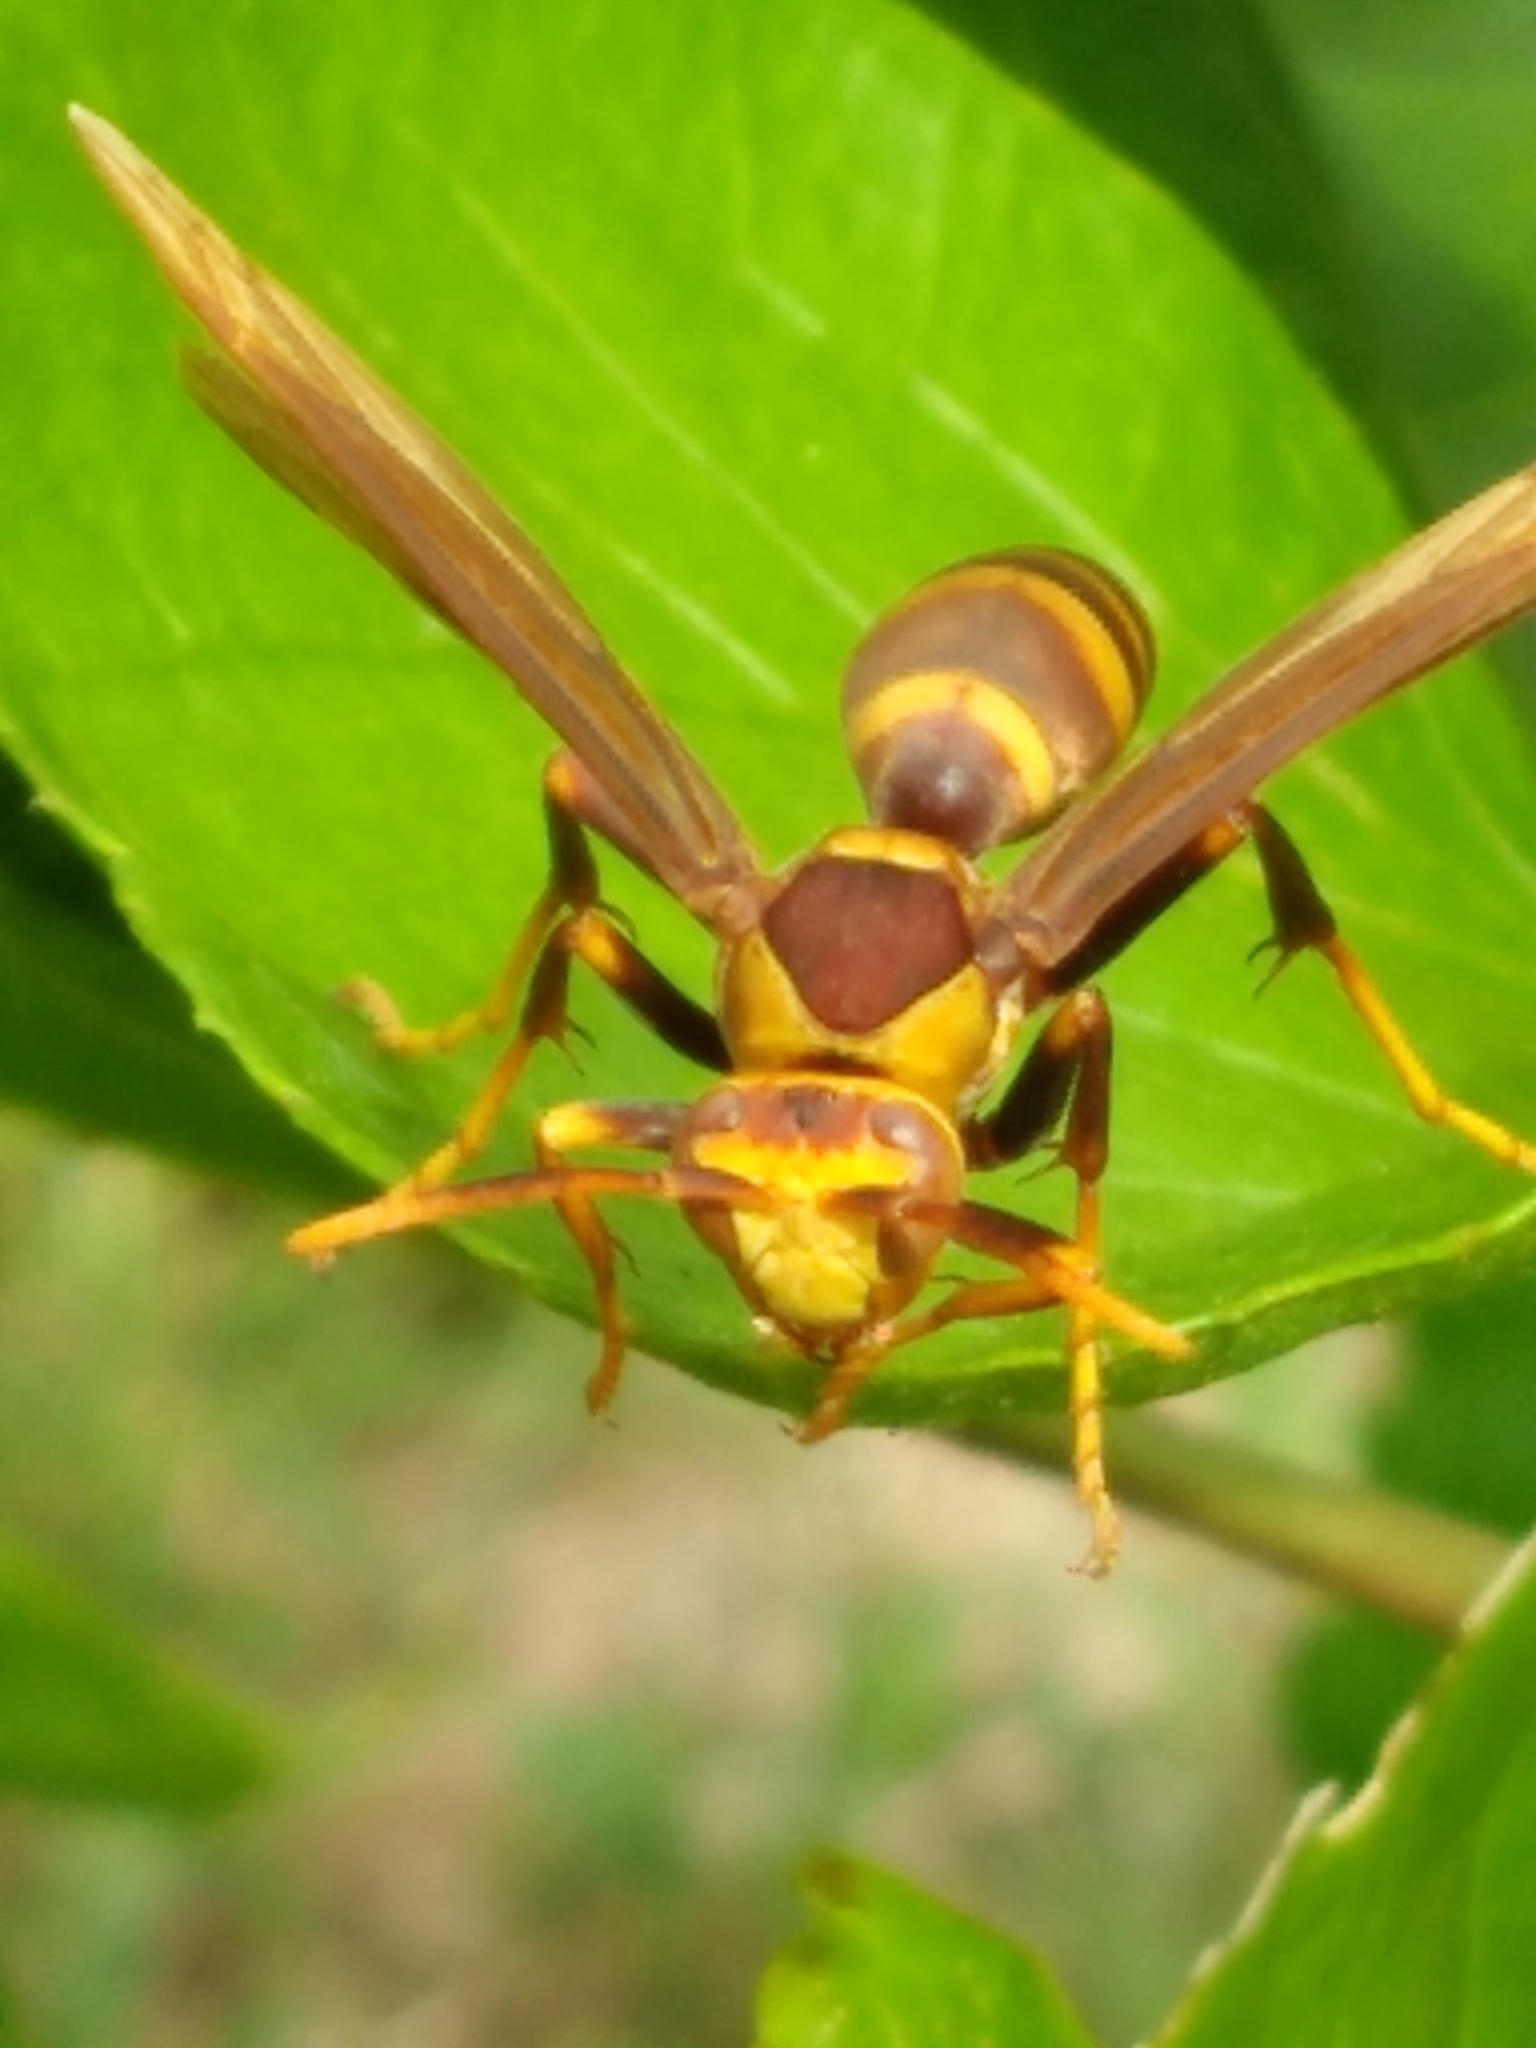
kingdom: Animalia
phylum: Arthropoda
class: Insecta
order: Hymenoptera
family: Eumenidae
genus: Polistes
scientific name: Polistes major
